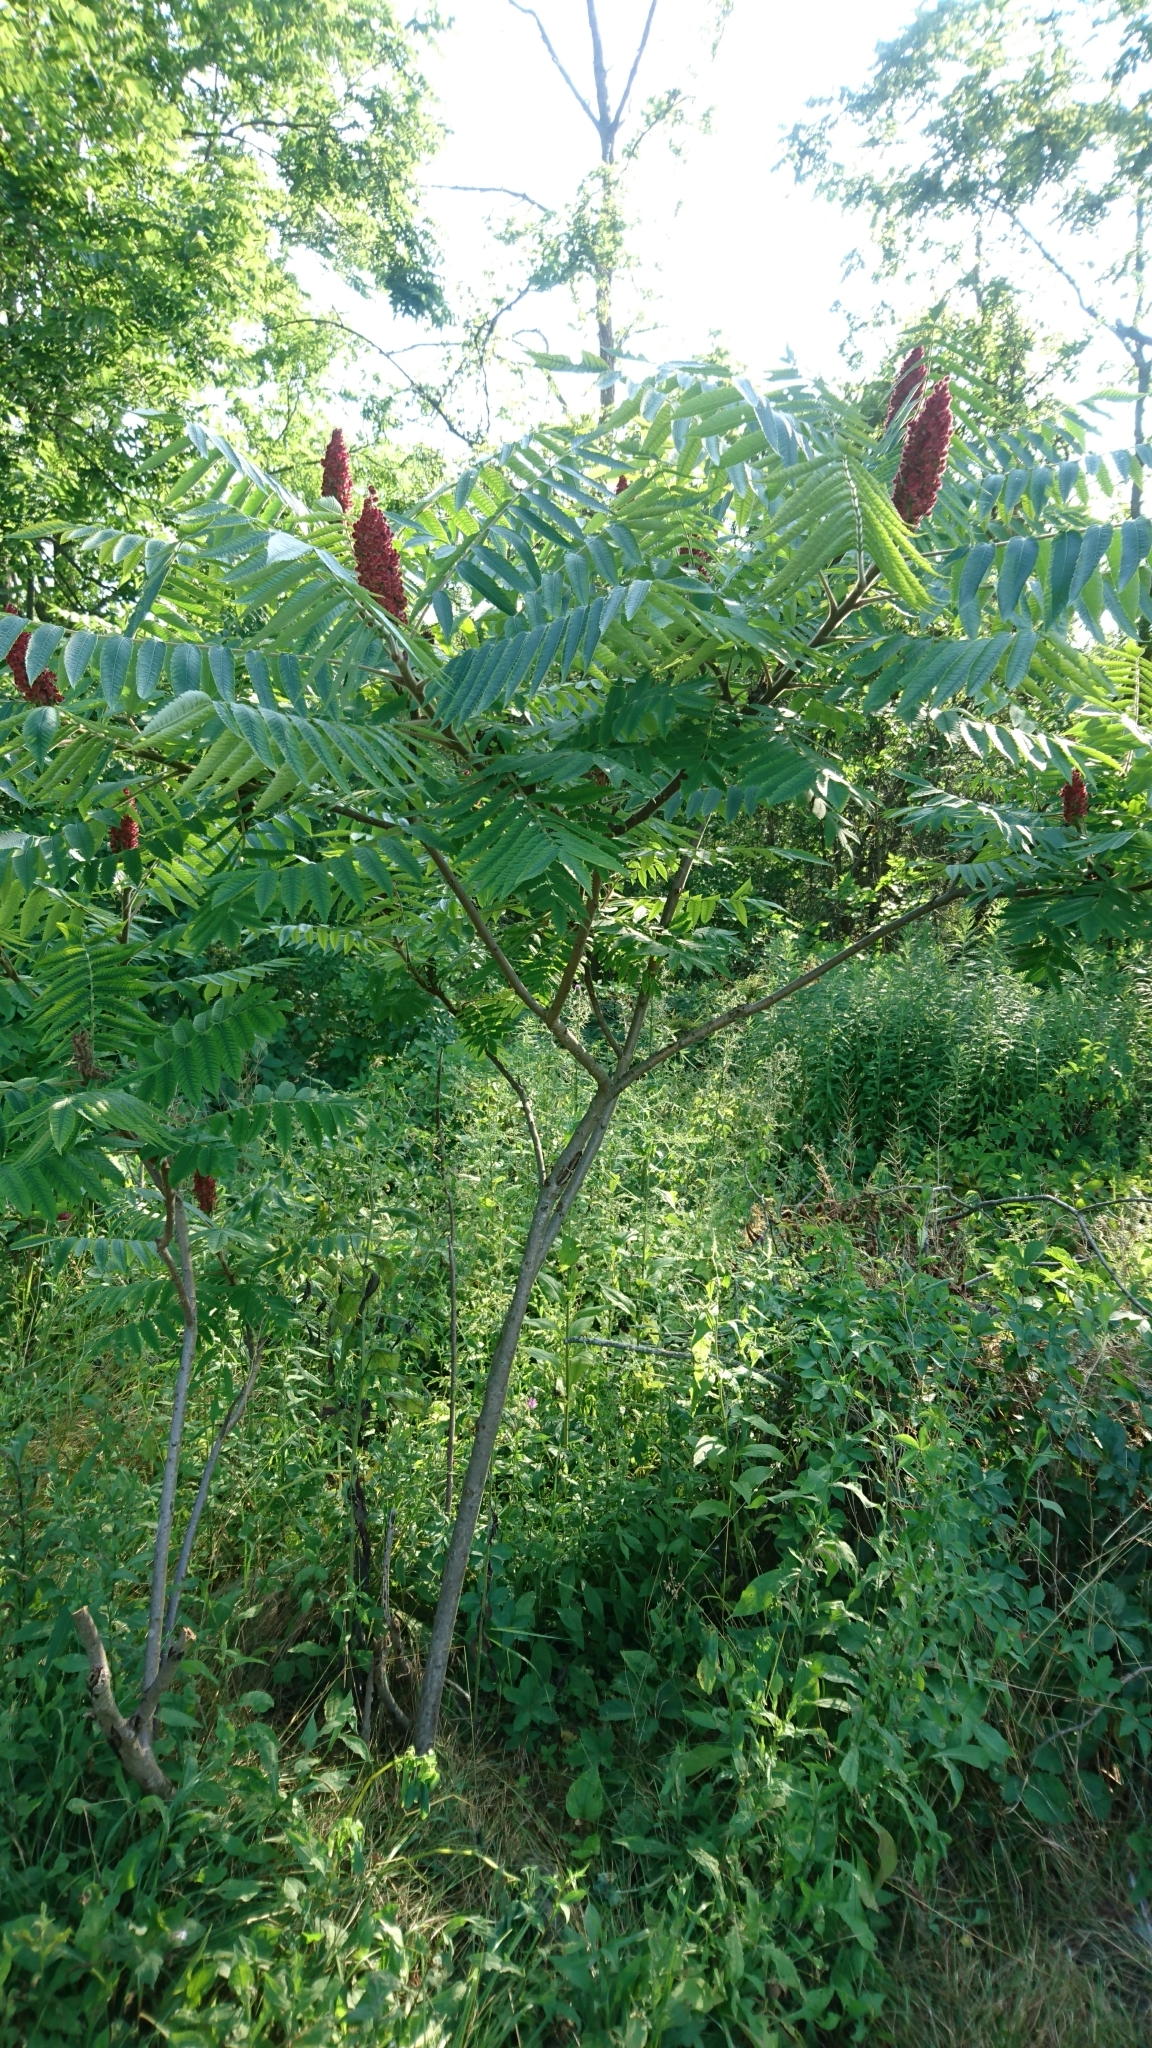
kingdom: Plantae
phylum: Tracheophyta
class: Magnoliopsida
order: Sapindales
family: Anacardiaceae
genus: Rhus
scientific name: Rhus typhina
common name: Staghorn sumac
